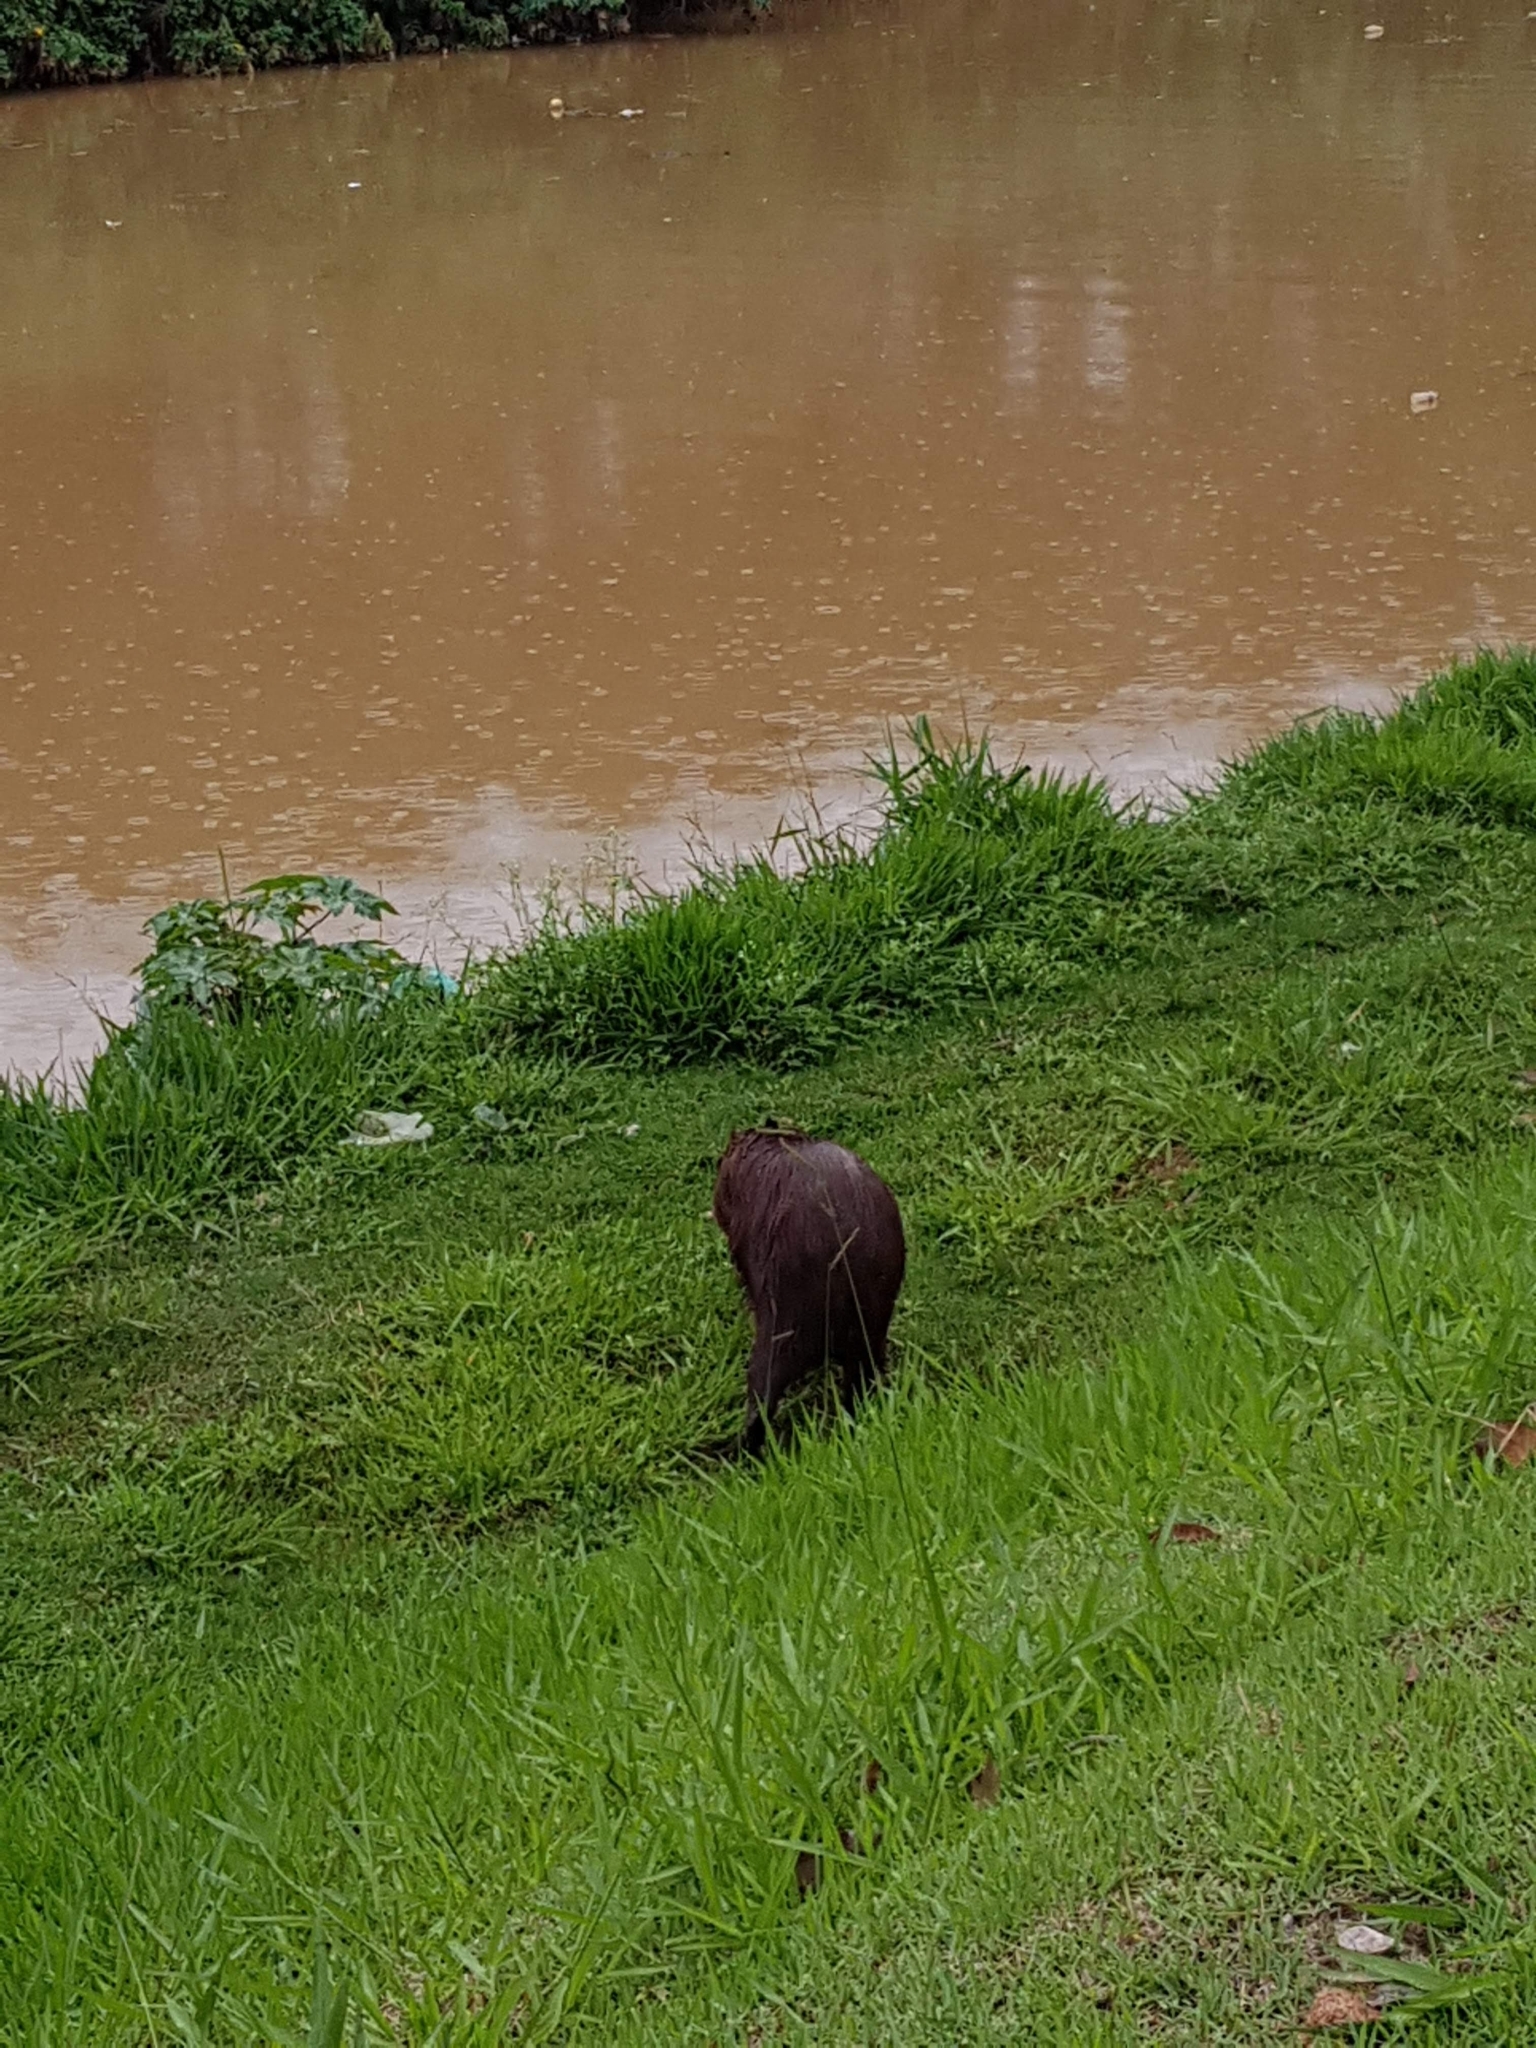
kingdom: Animalia
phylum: Chordata
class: Mammalia
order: Rodentia
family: Caviidae
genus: Hydrochoerus
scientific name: Hydrochoerus hydrochaeris
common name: Capybara
